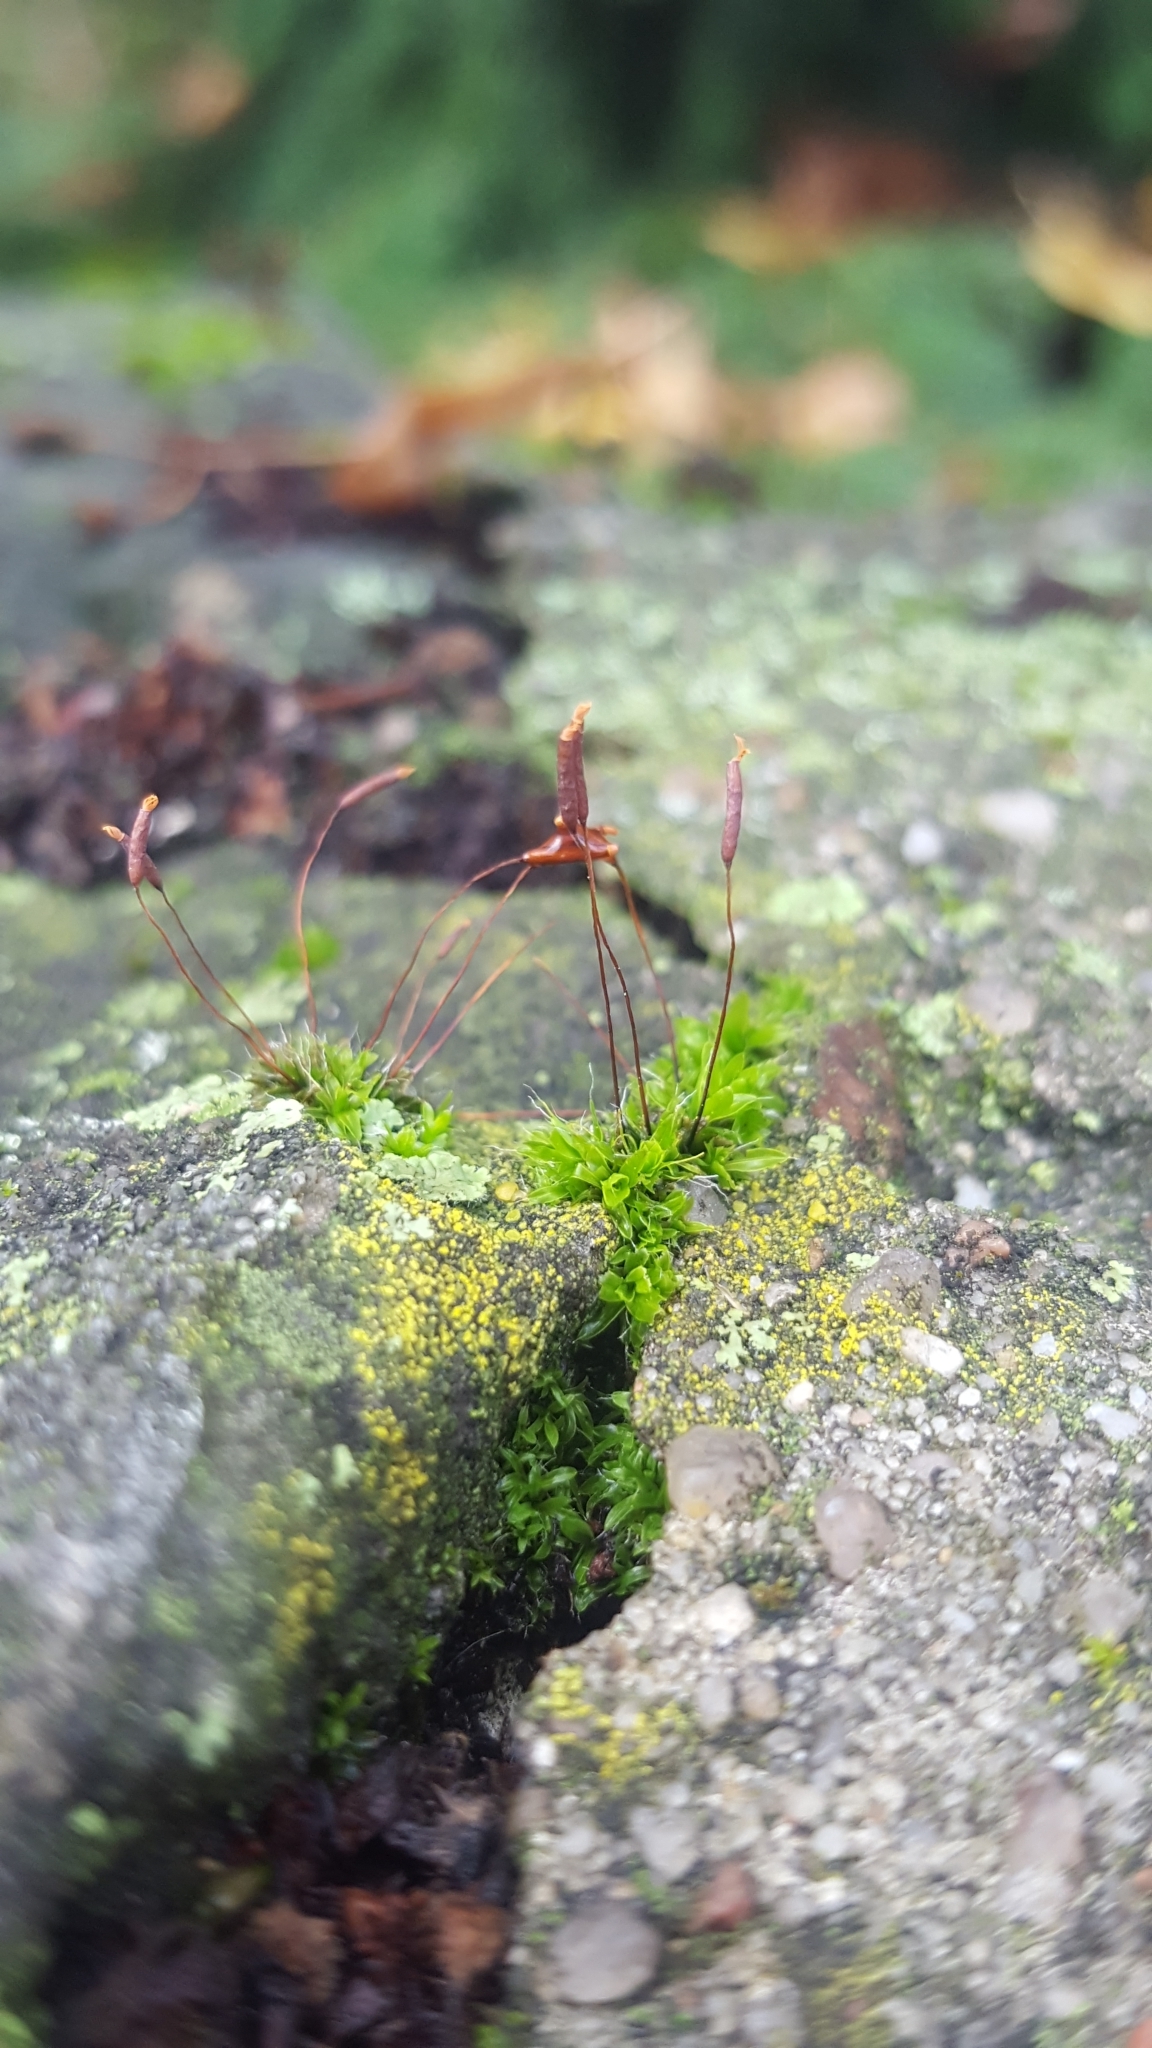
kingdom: Plantae
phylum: Bryophyta
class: Bryopsida
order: Pottiales
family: Pottiaceae
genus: Tortula
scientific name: Tortula muralis
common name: Wall screw-moss
